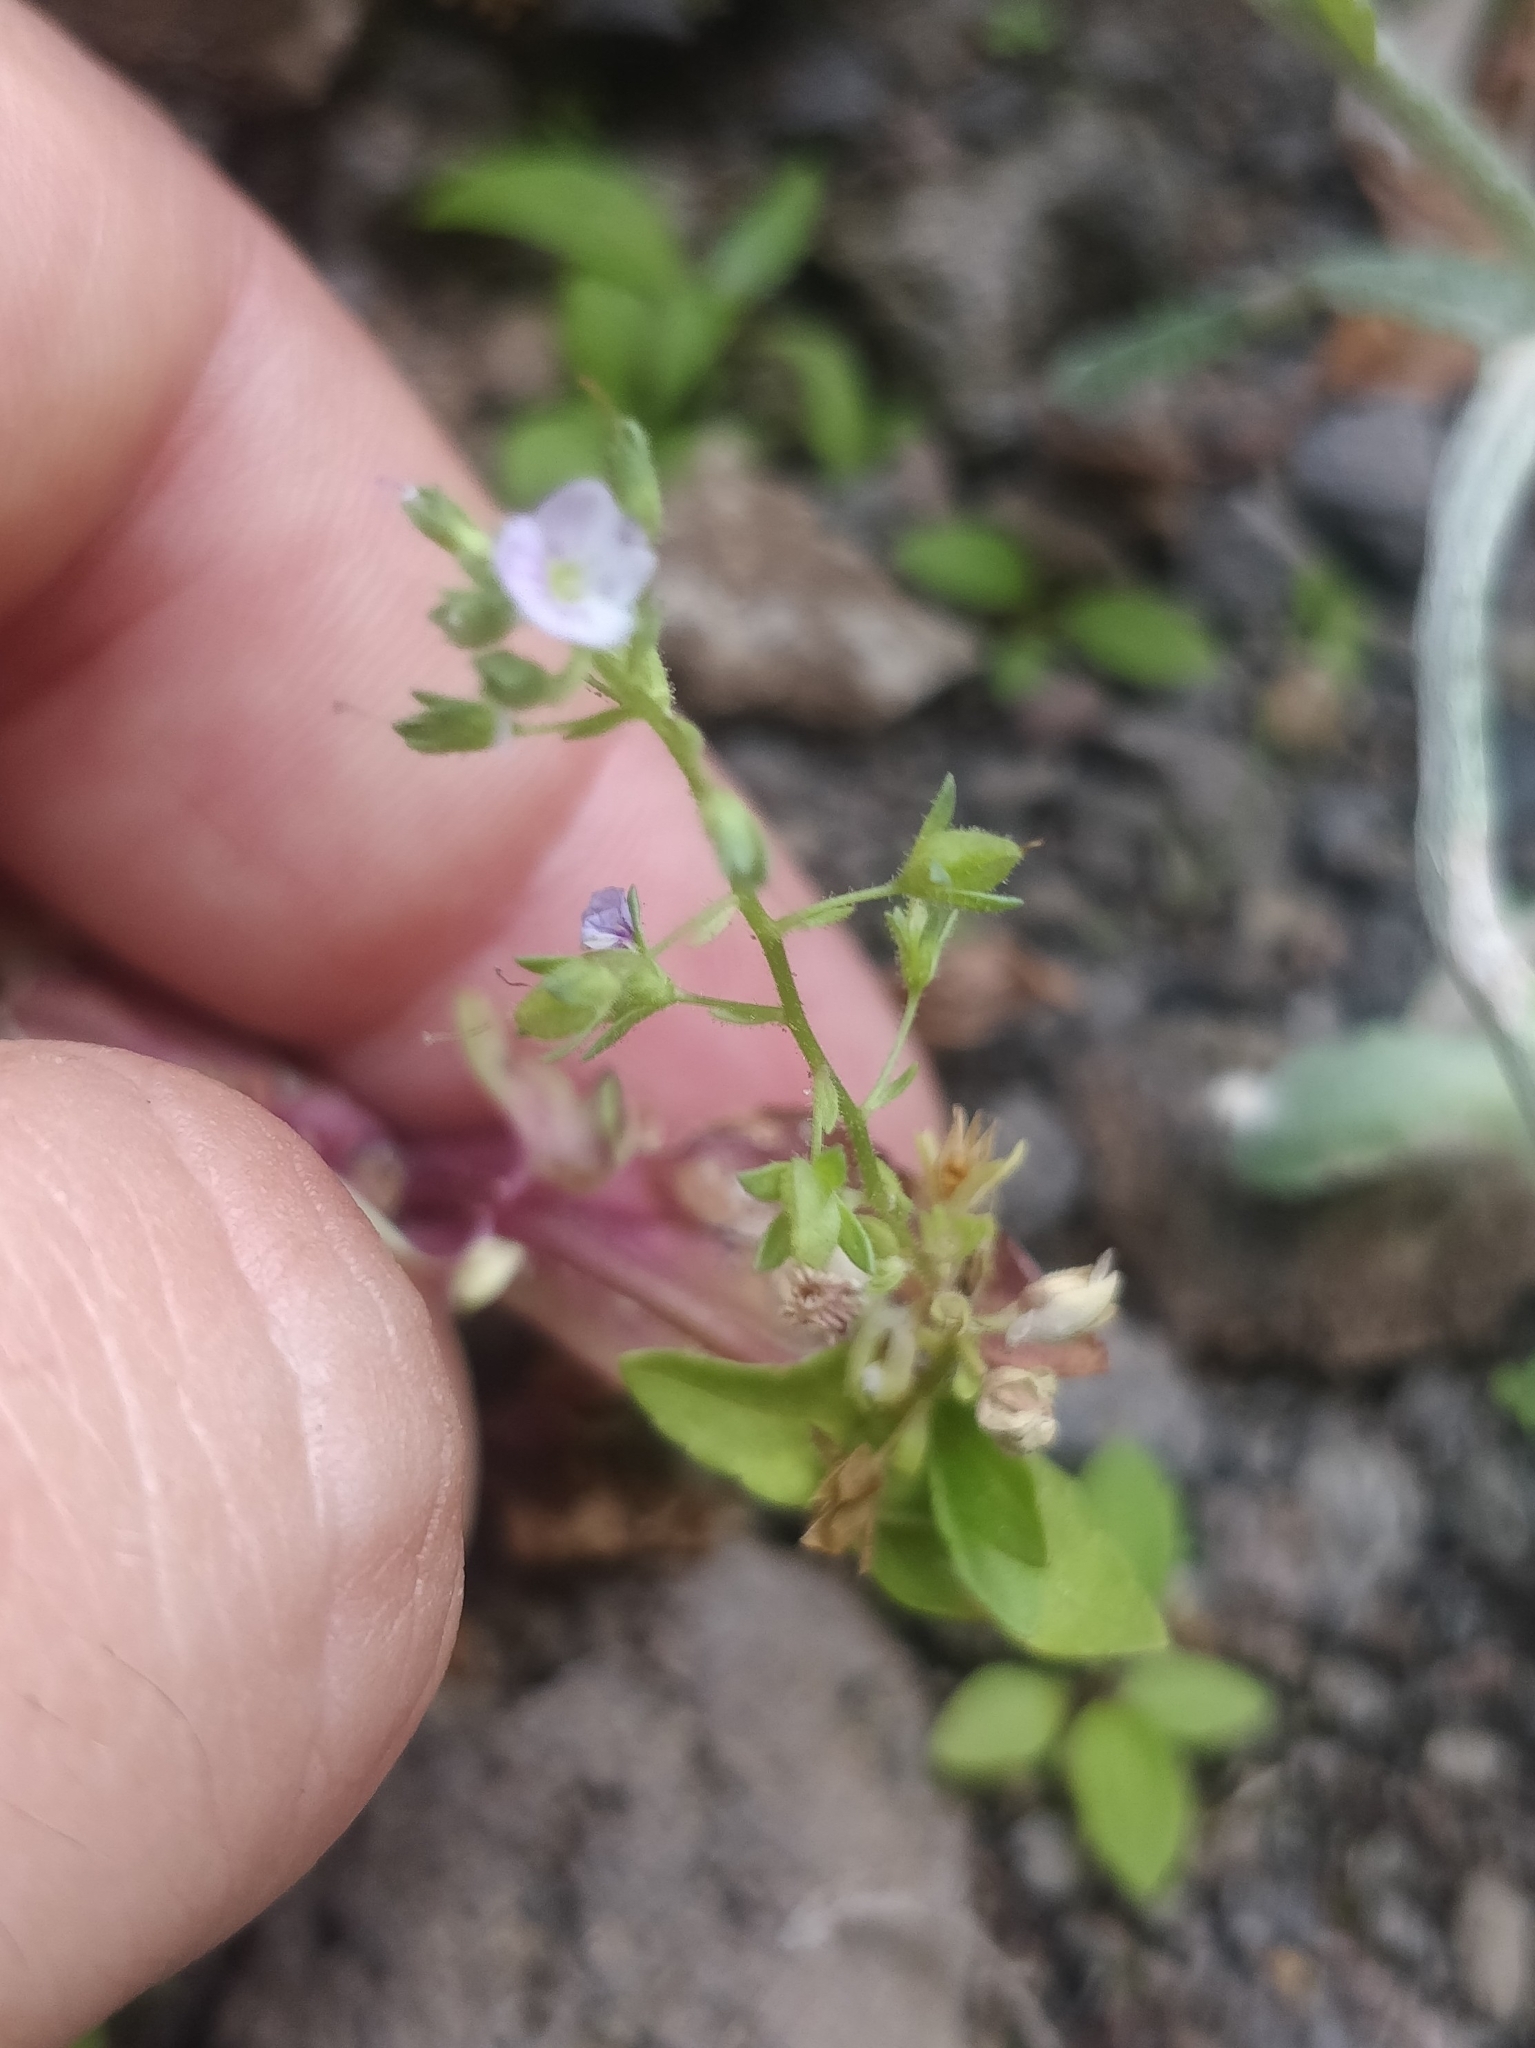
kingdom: Plantae
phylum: Tracheophyta
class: Magnoliopsida
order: Lamiales
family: Plantaginaceae
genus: Veronica
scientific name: Veronica anagallis-aquatica
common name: Water speedwell
